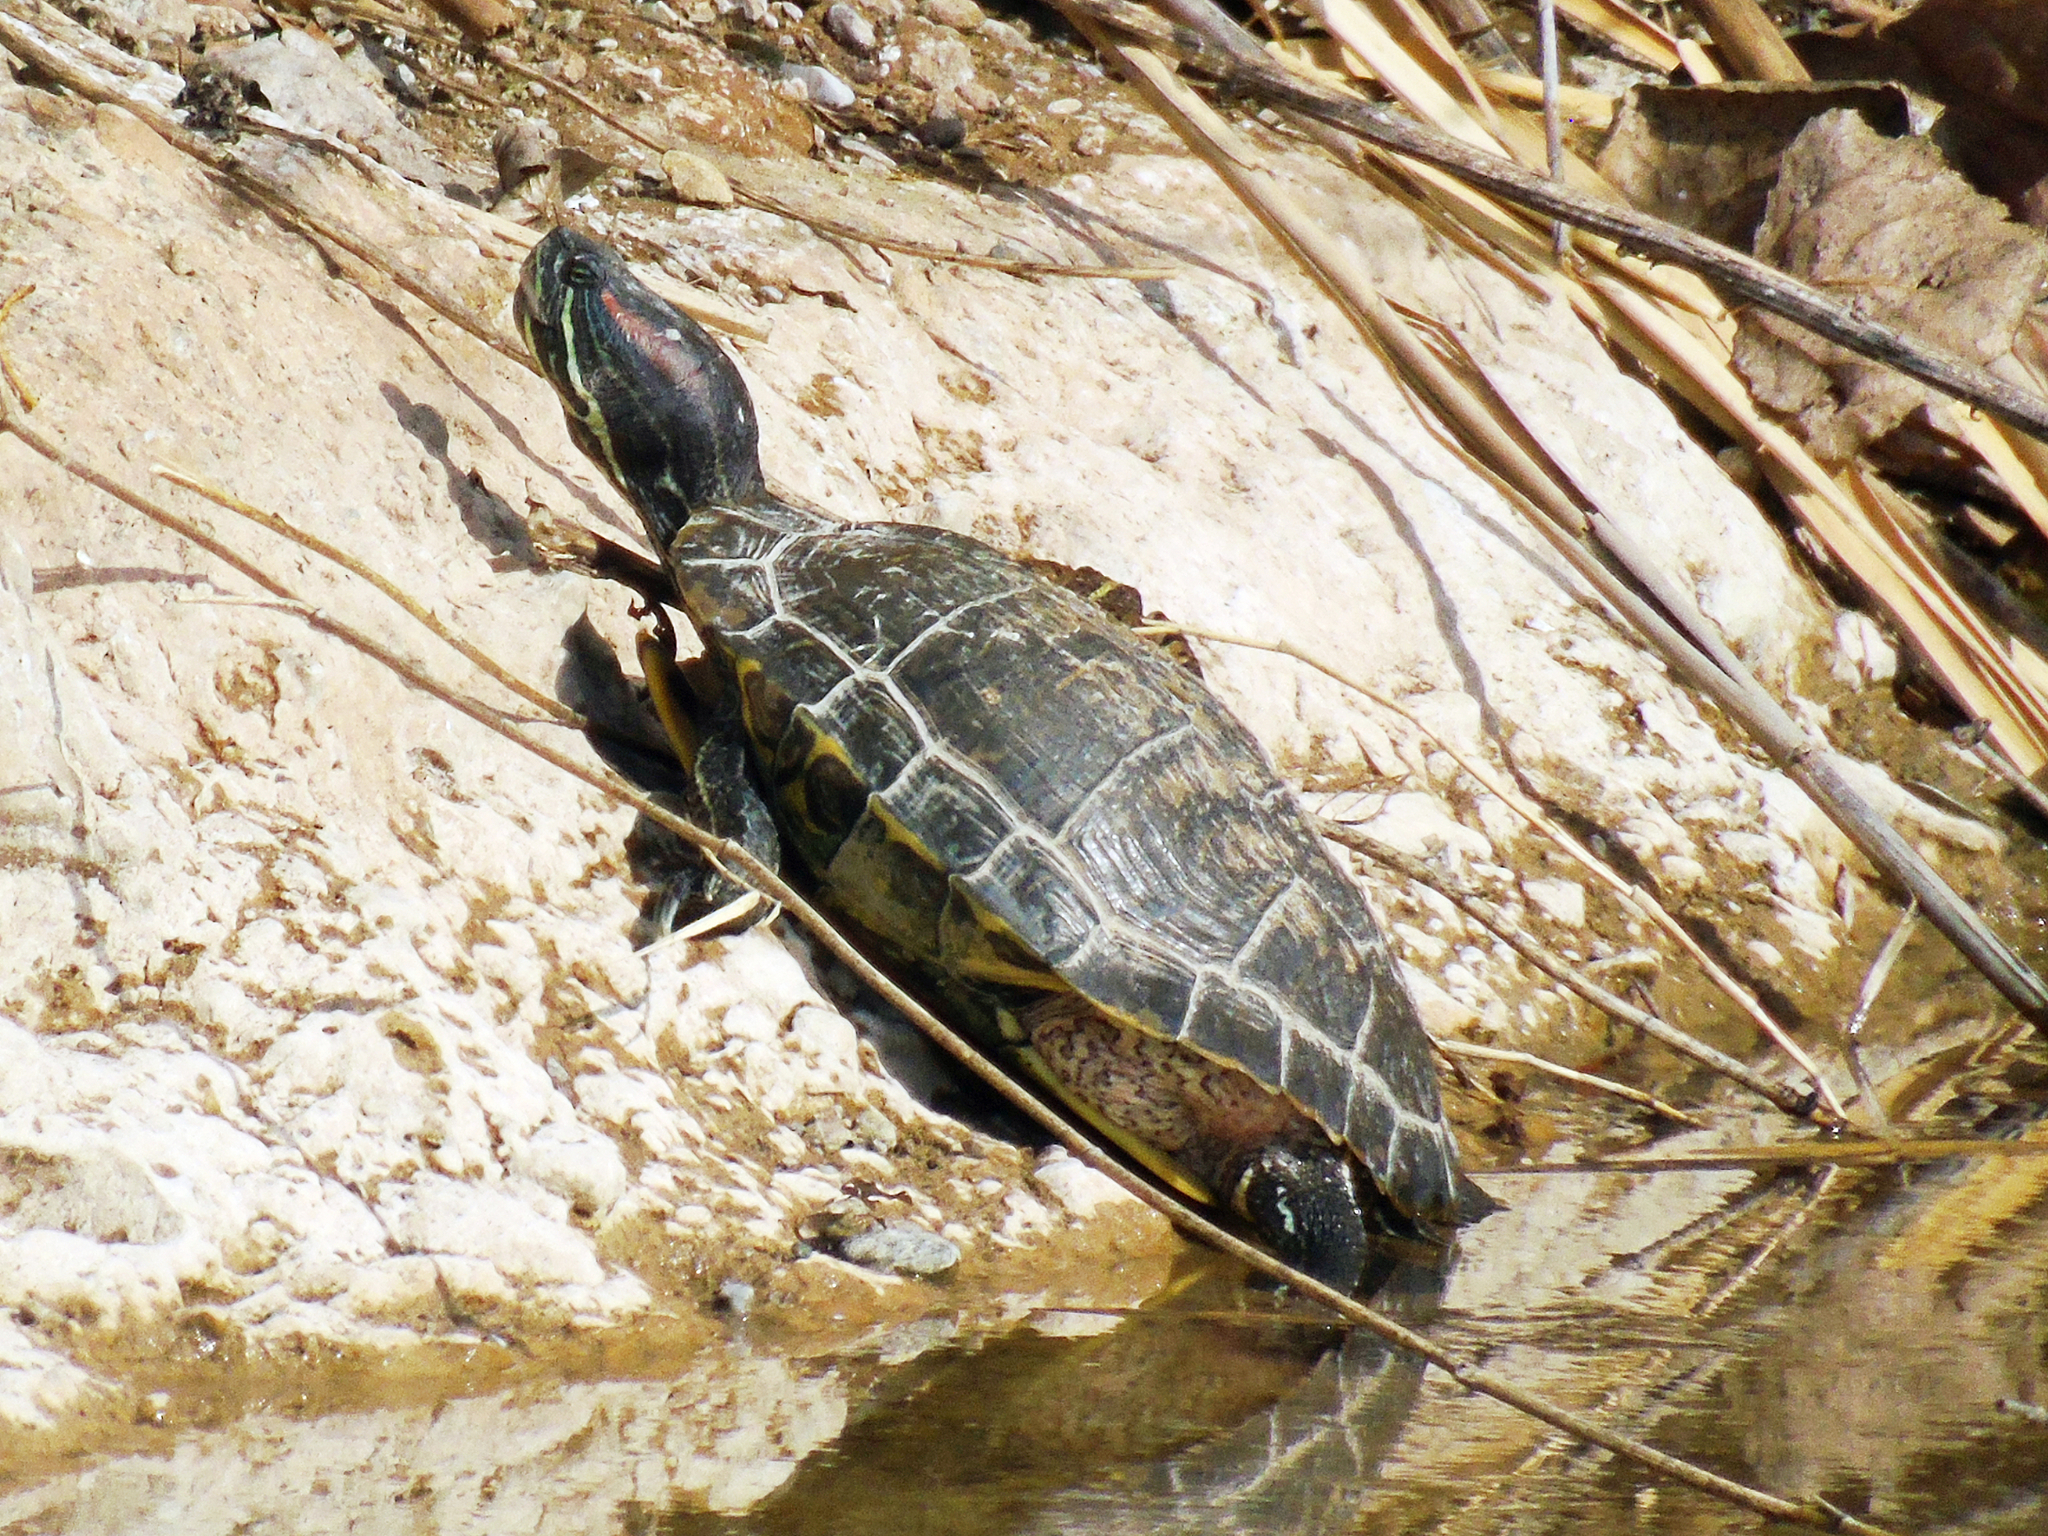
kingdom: Animalia
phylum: Chordata
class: Testudines
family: Emydidae
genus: Trachemys
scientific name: Trachemys scripta
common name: Slider
